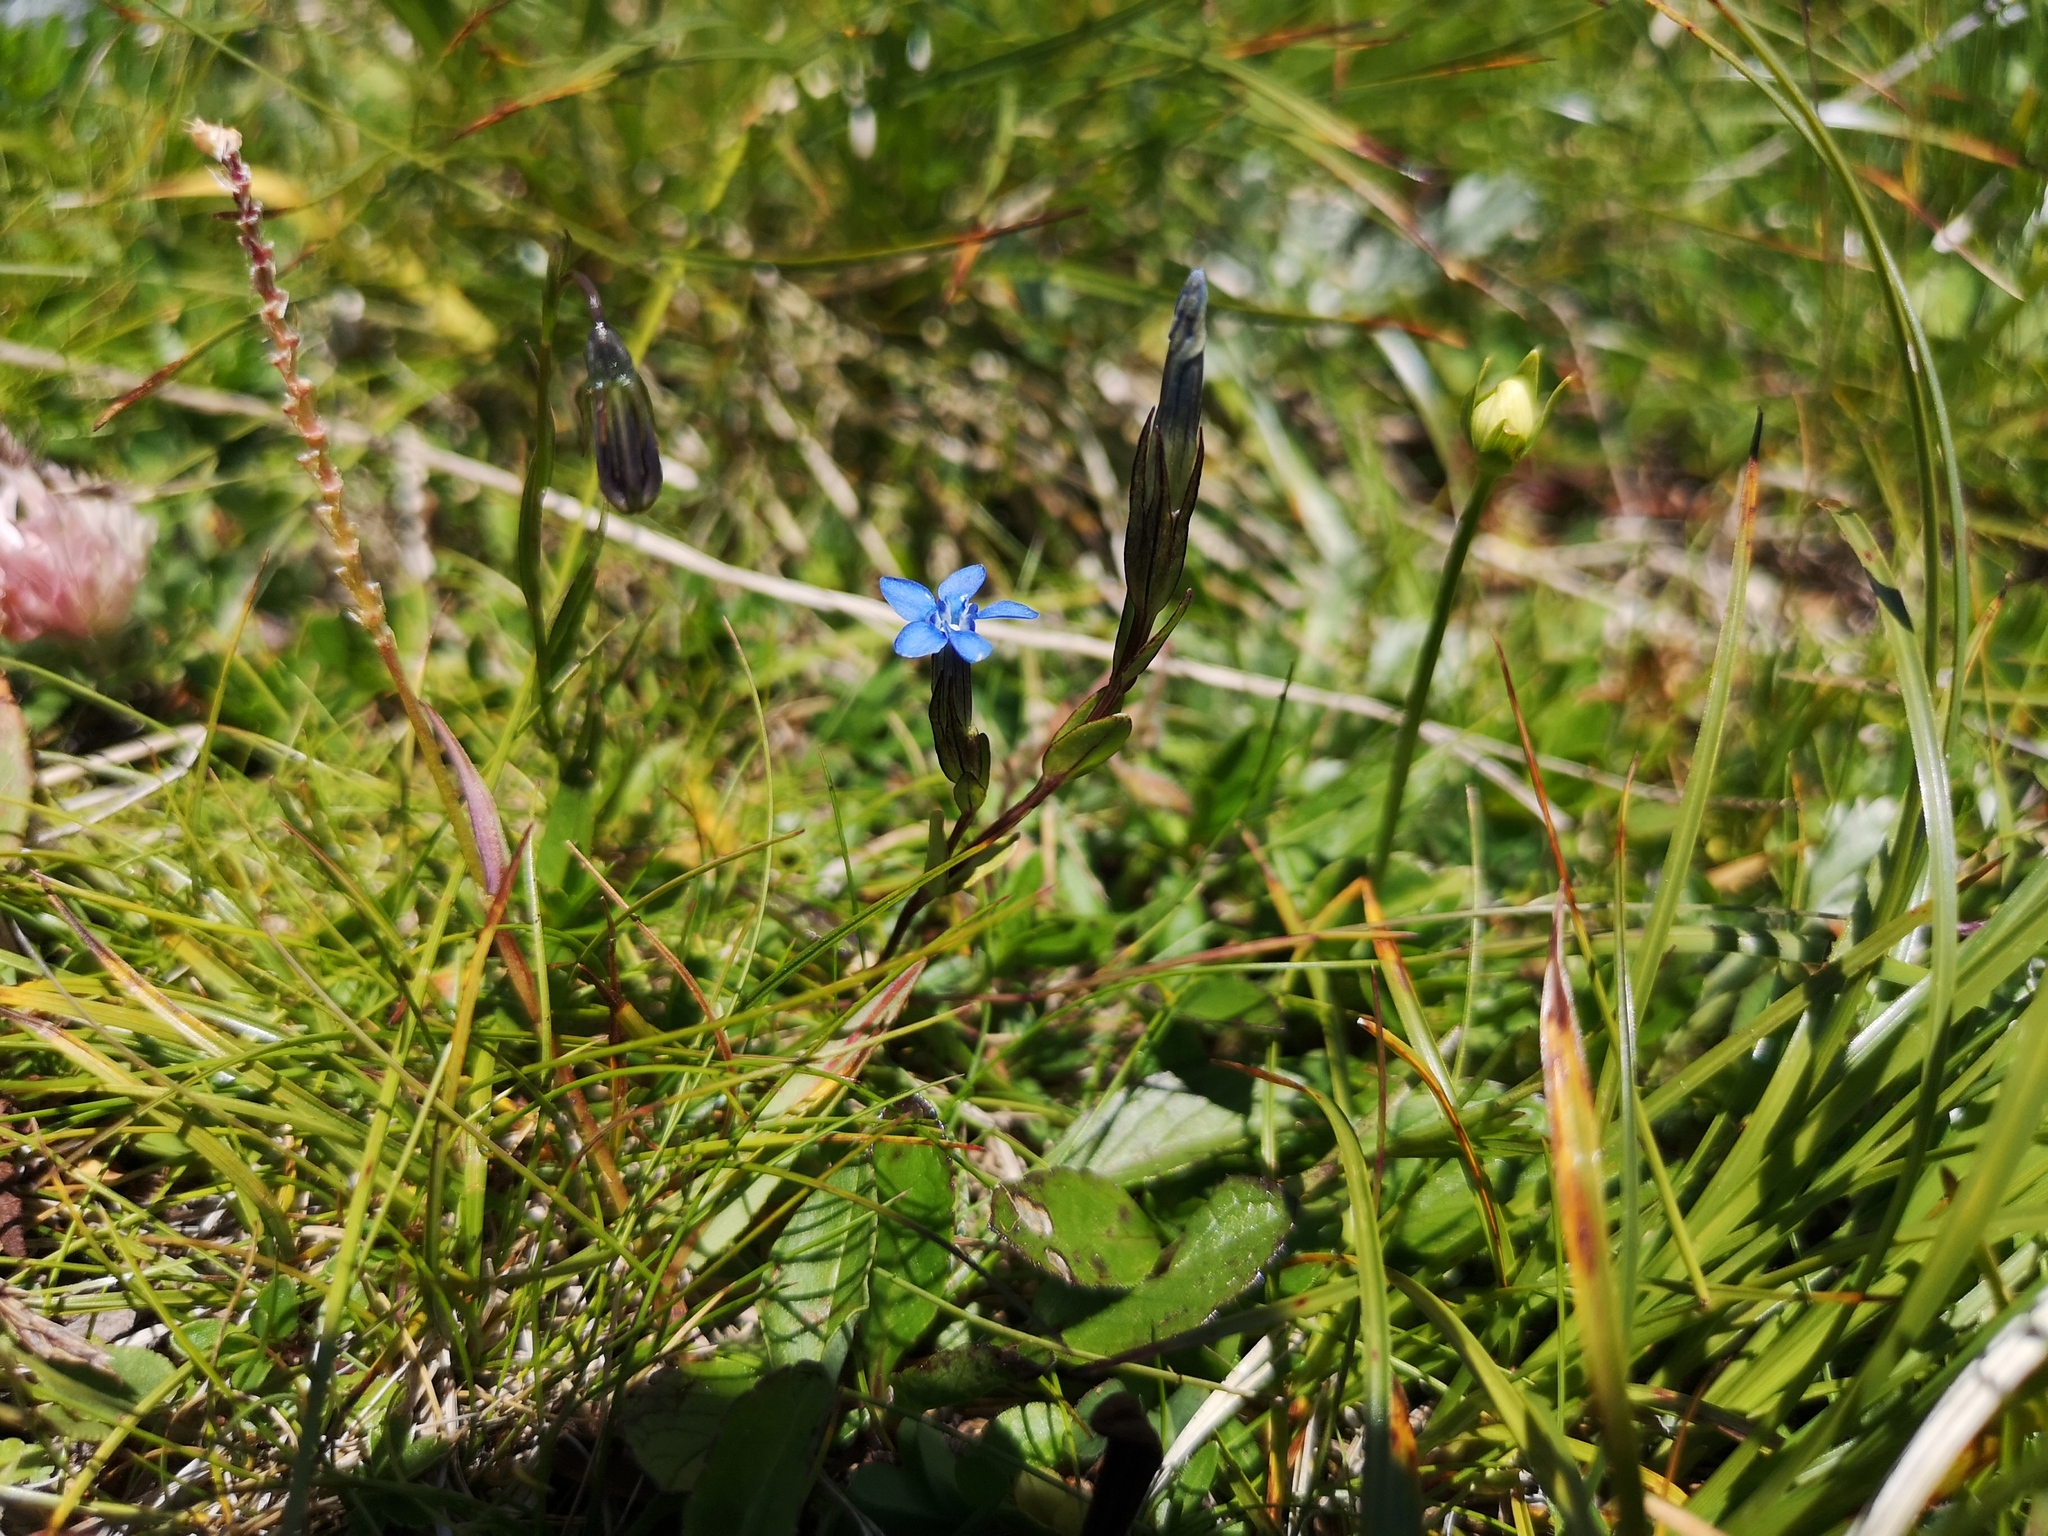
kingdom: Plantae
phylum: Tracheophyta
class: Magnoliopsida
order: Gentianales
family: Gentianaceae
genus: Gentiana
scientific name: Gentiana nivalis
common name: Alpine gentian
